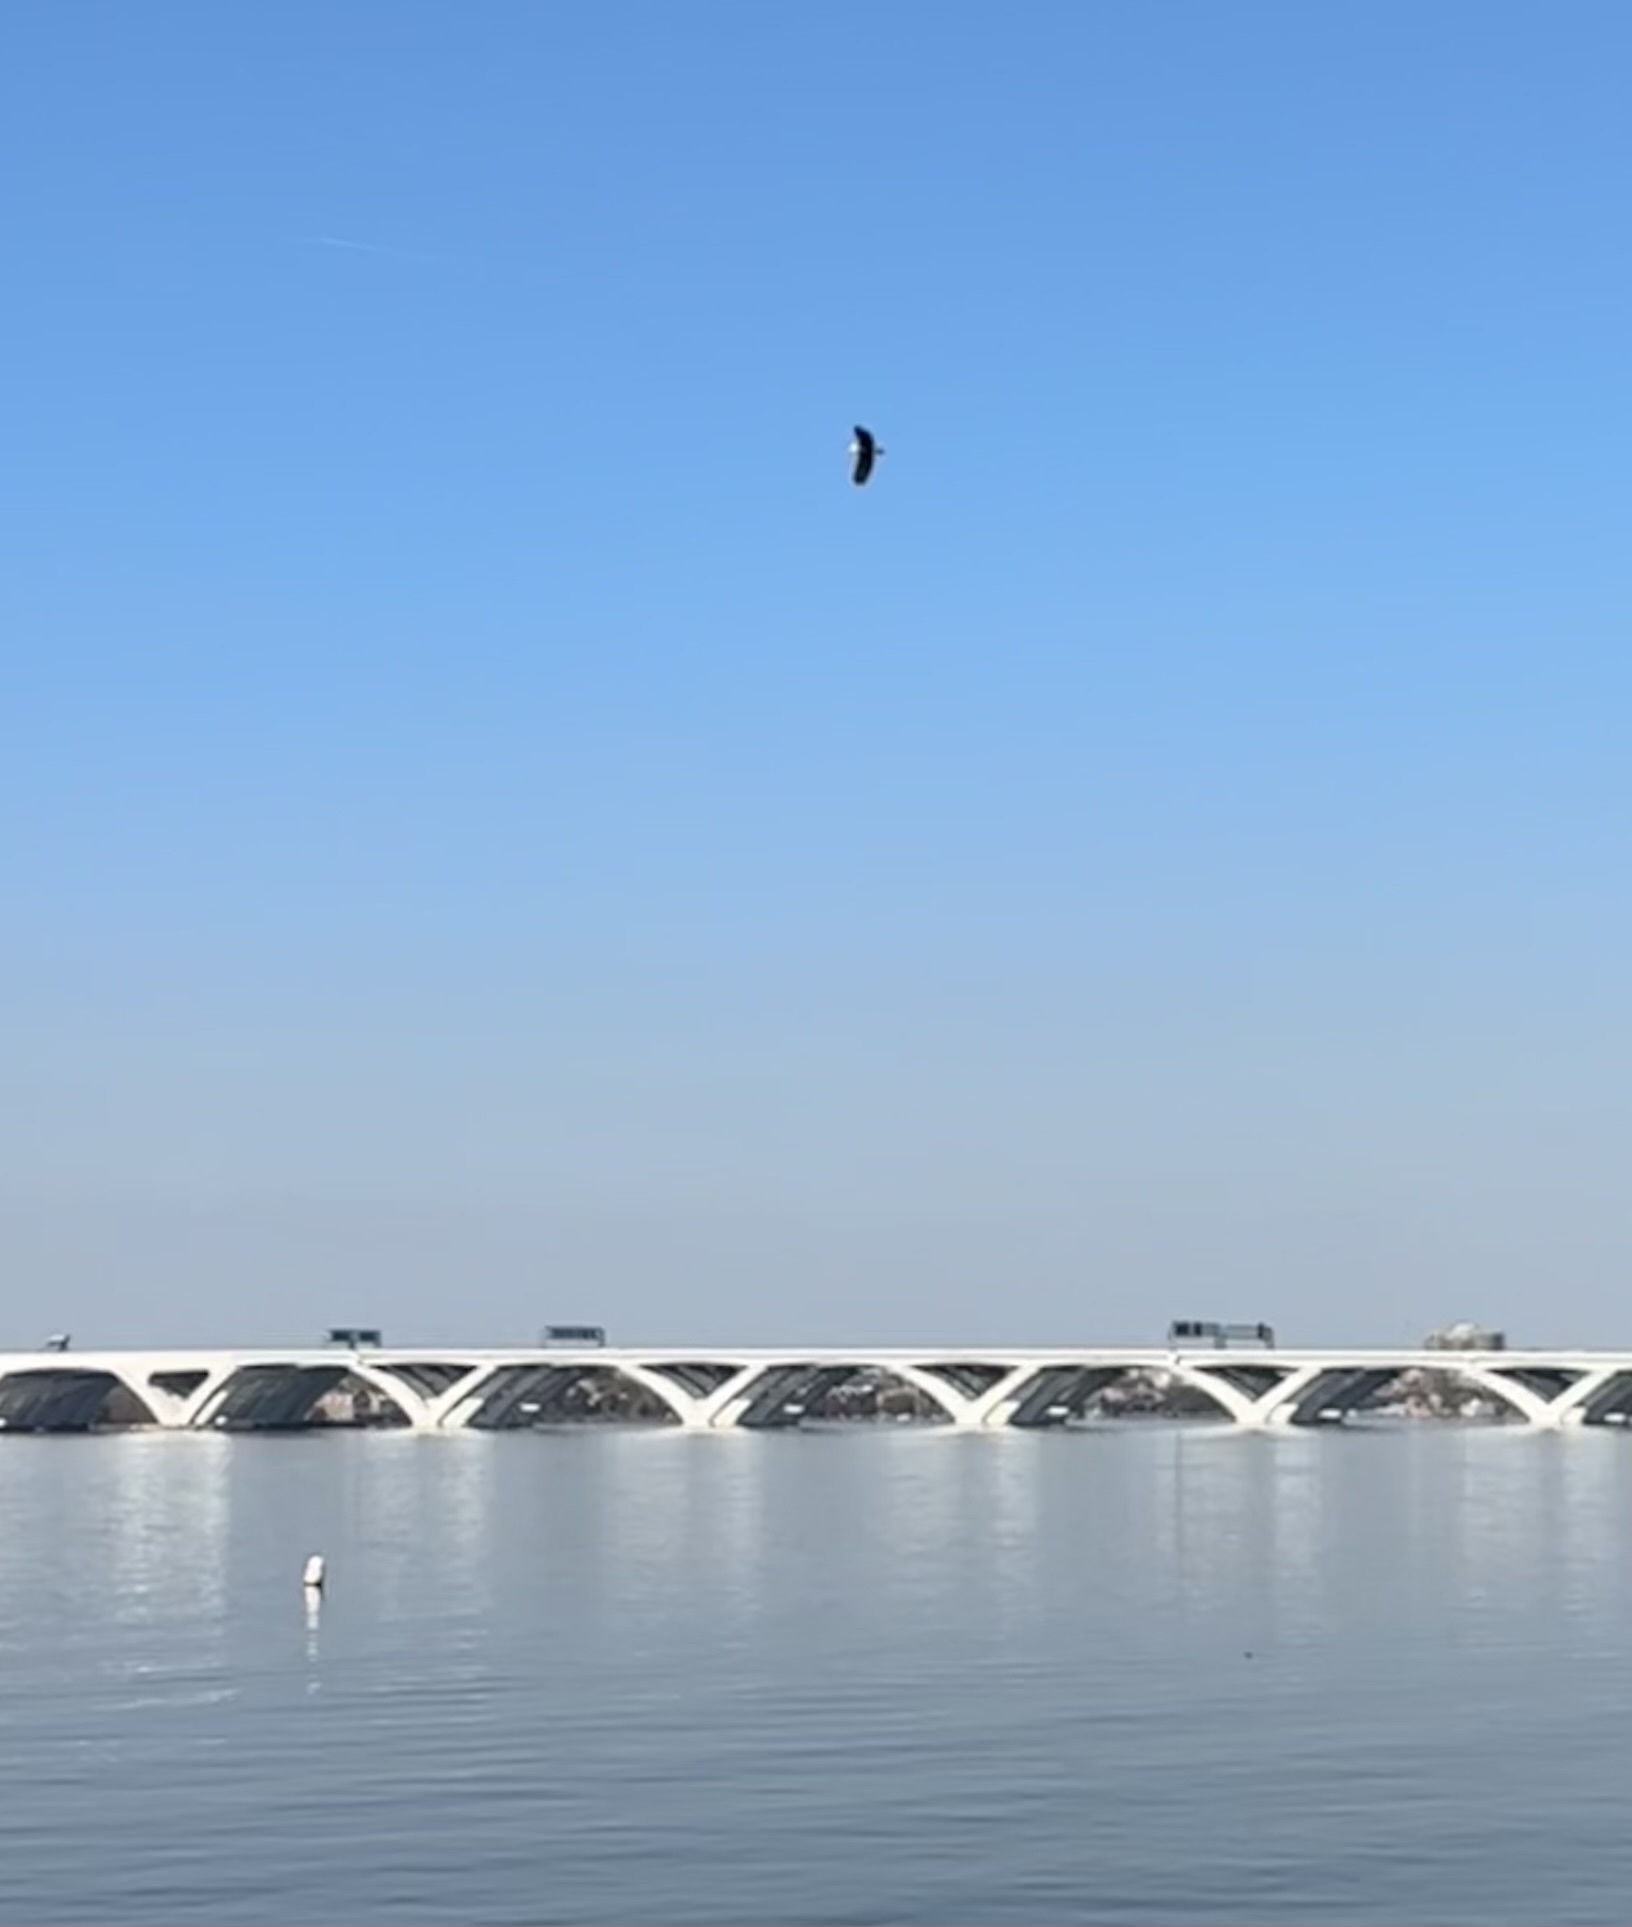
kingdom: Animalia
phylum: Chordata
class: Aves
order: Accipitriformes
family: Accipitridae
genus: Haliaeetus
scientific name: Haliaeetus leucocephalus
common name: Bald eagle
